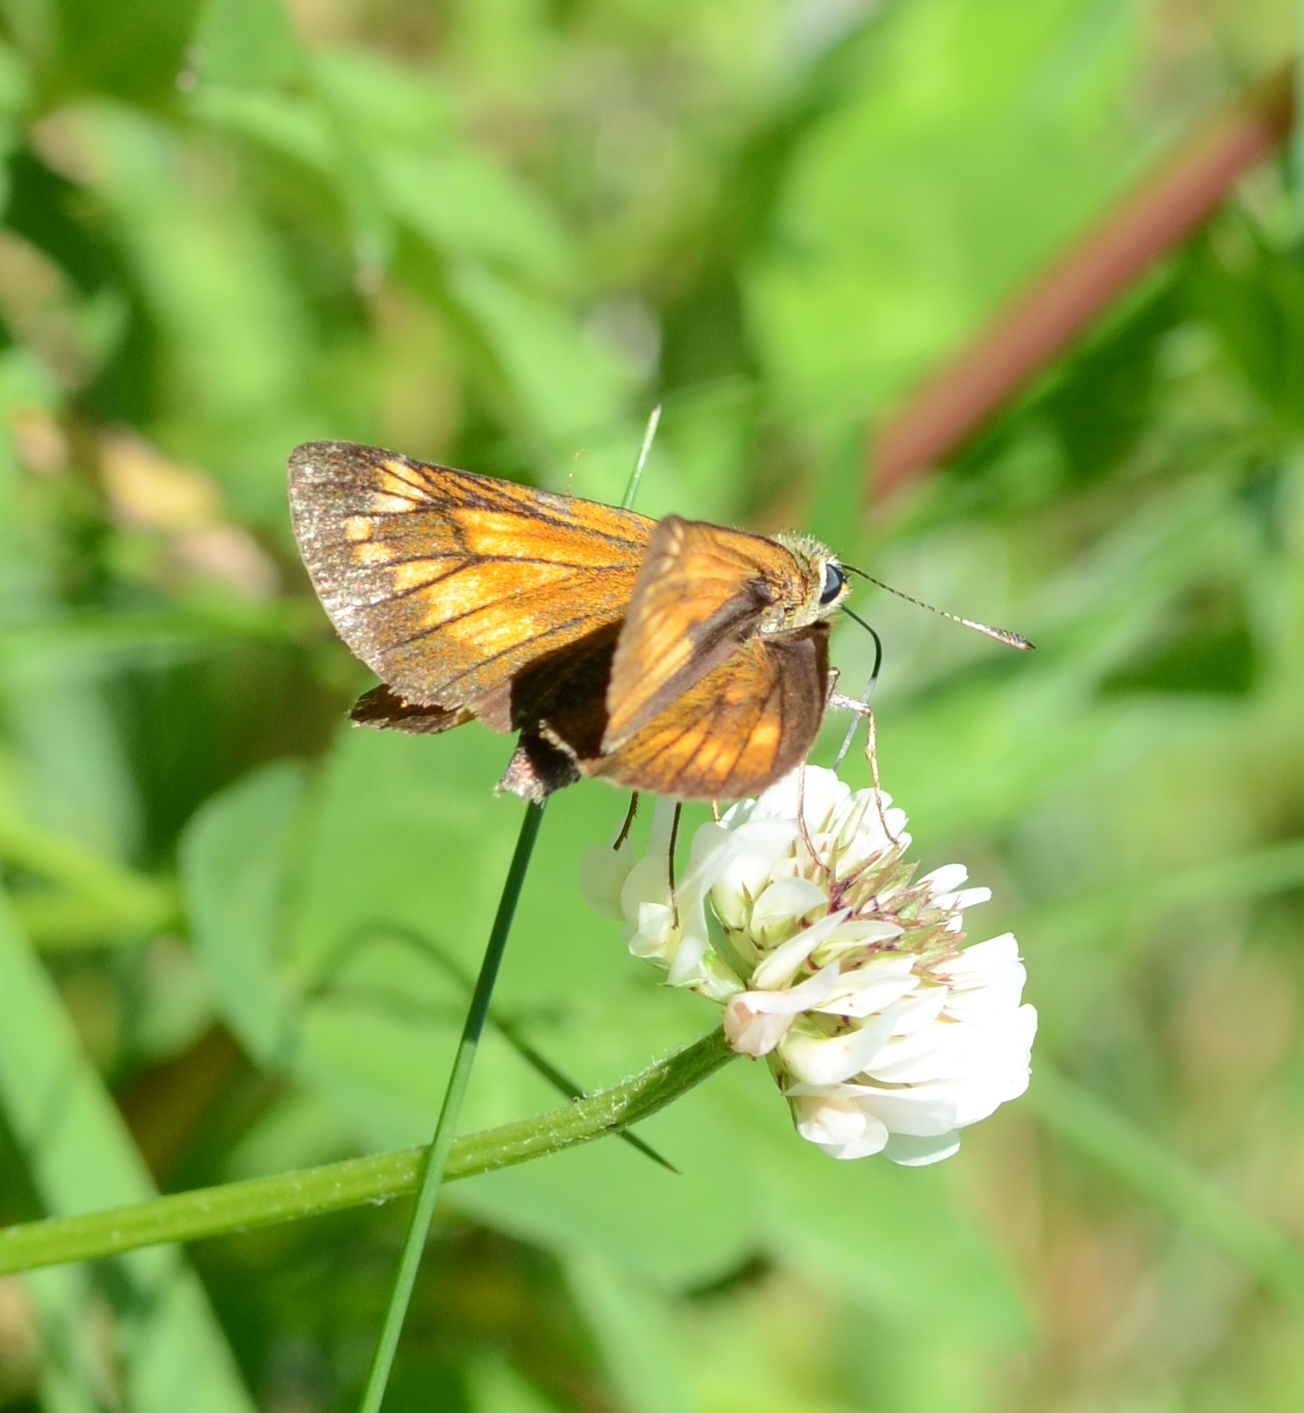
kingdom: Animalia
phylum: Arthropoda
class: Insecta
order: Lepidoptera
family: Hesperiidae
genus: Ochlodes
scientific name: Ochlodes venata
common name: Large skipper
